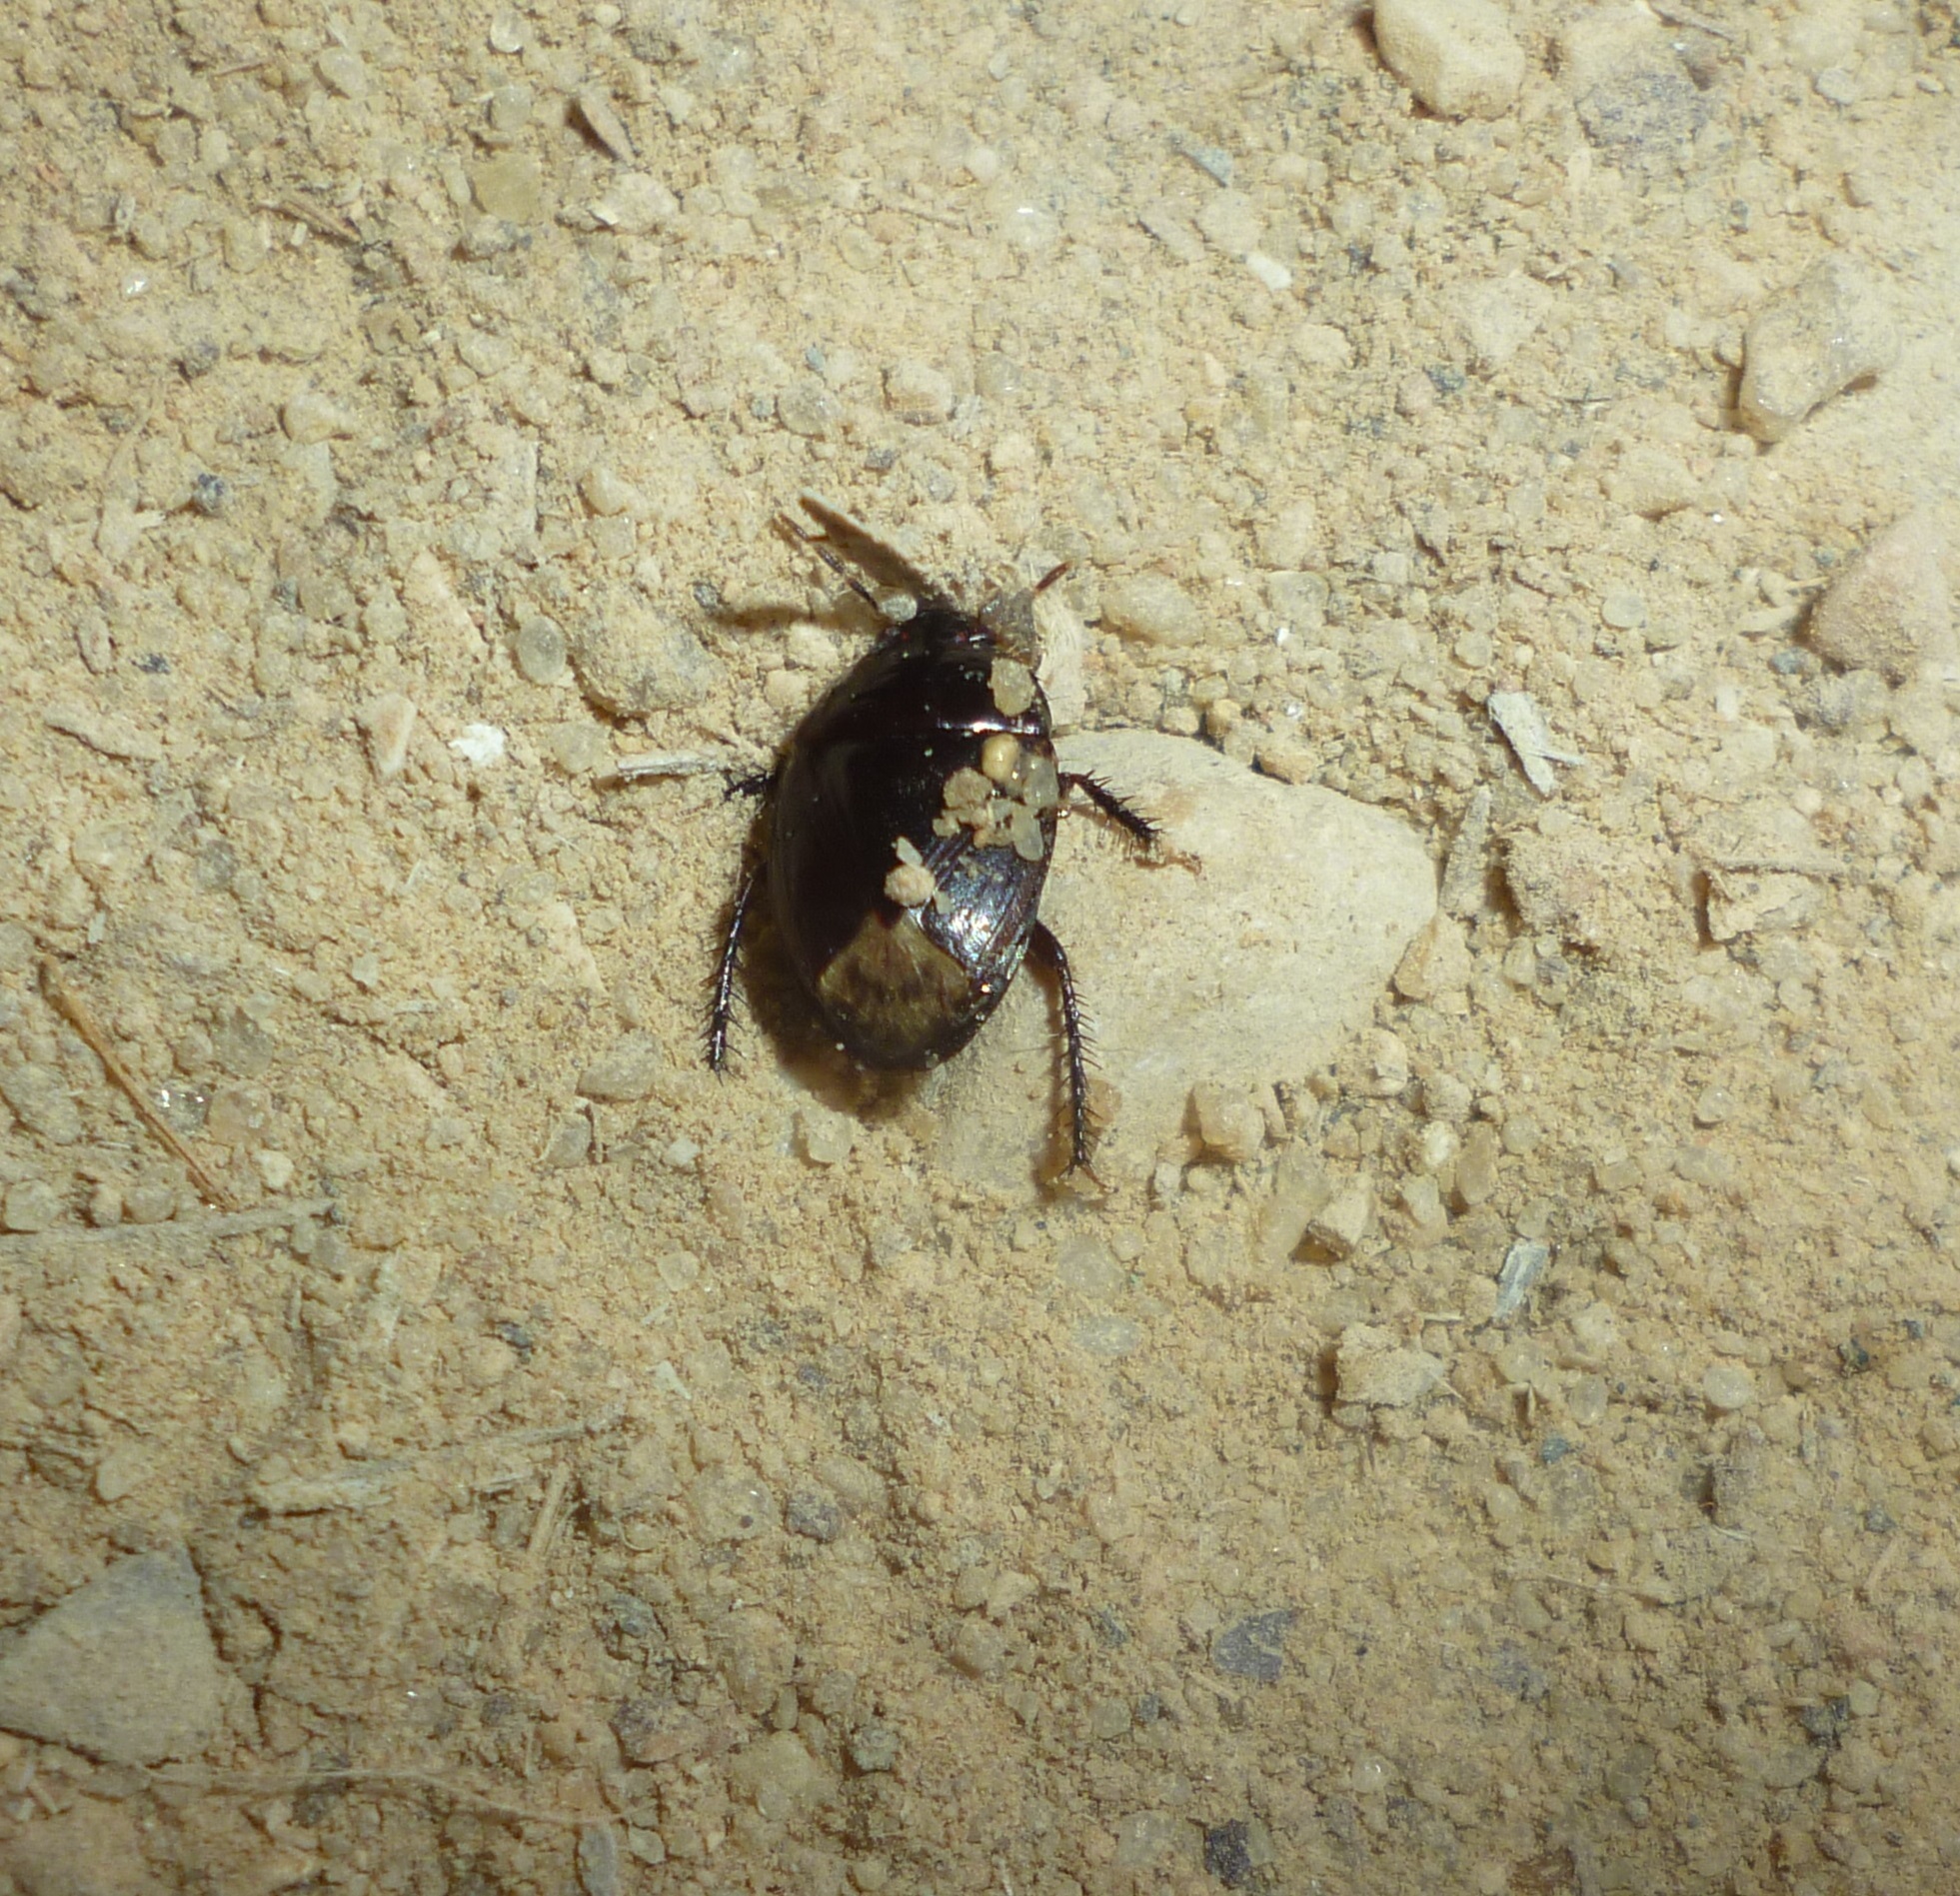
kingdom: Animalia
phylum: Arthropoda
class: Insecta
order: Hemiptera
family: Cydnidae
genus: Macroscytus
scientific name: Macroscytus brunneus
